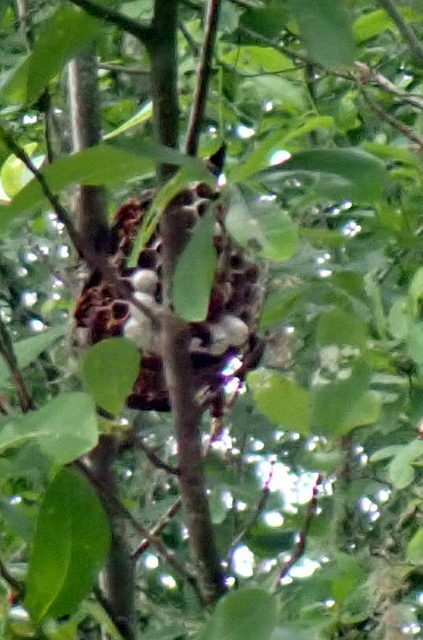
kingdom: Animalia
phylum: Arthropoda
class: Insecta
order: Hymenoptera
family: Vespidae
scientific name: Vespidae
